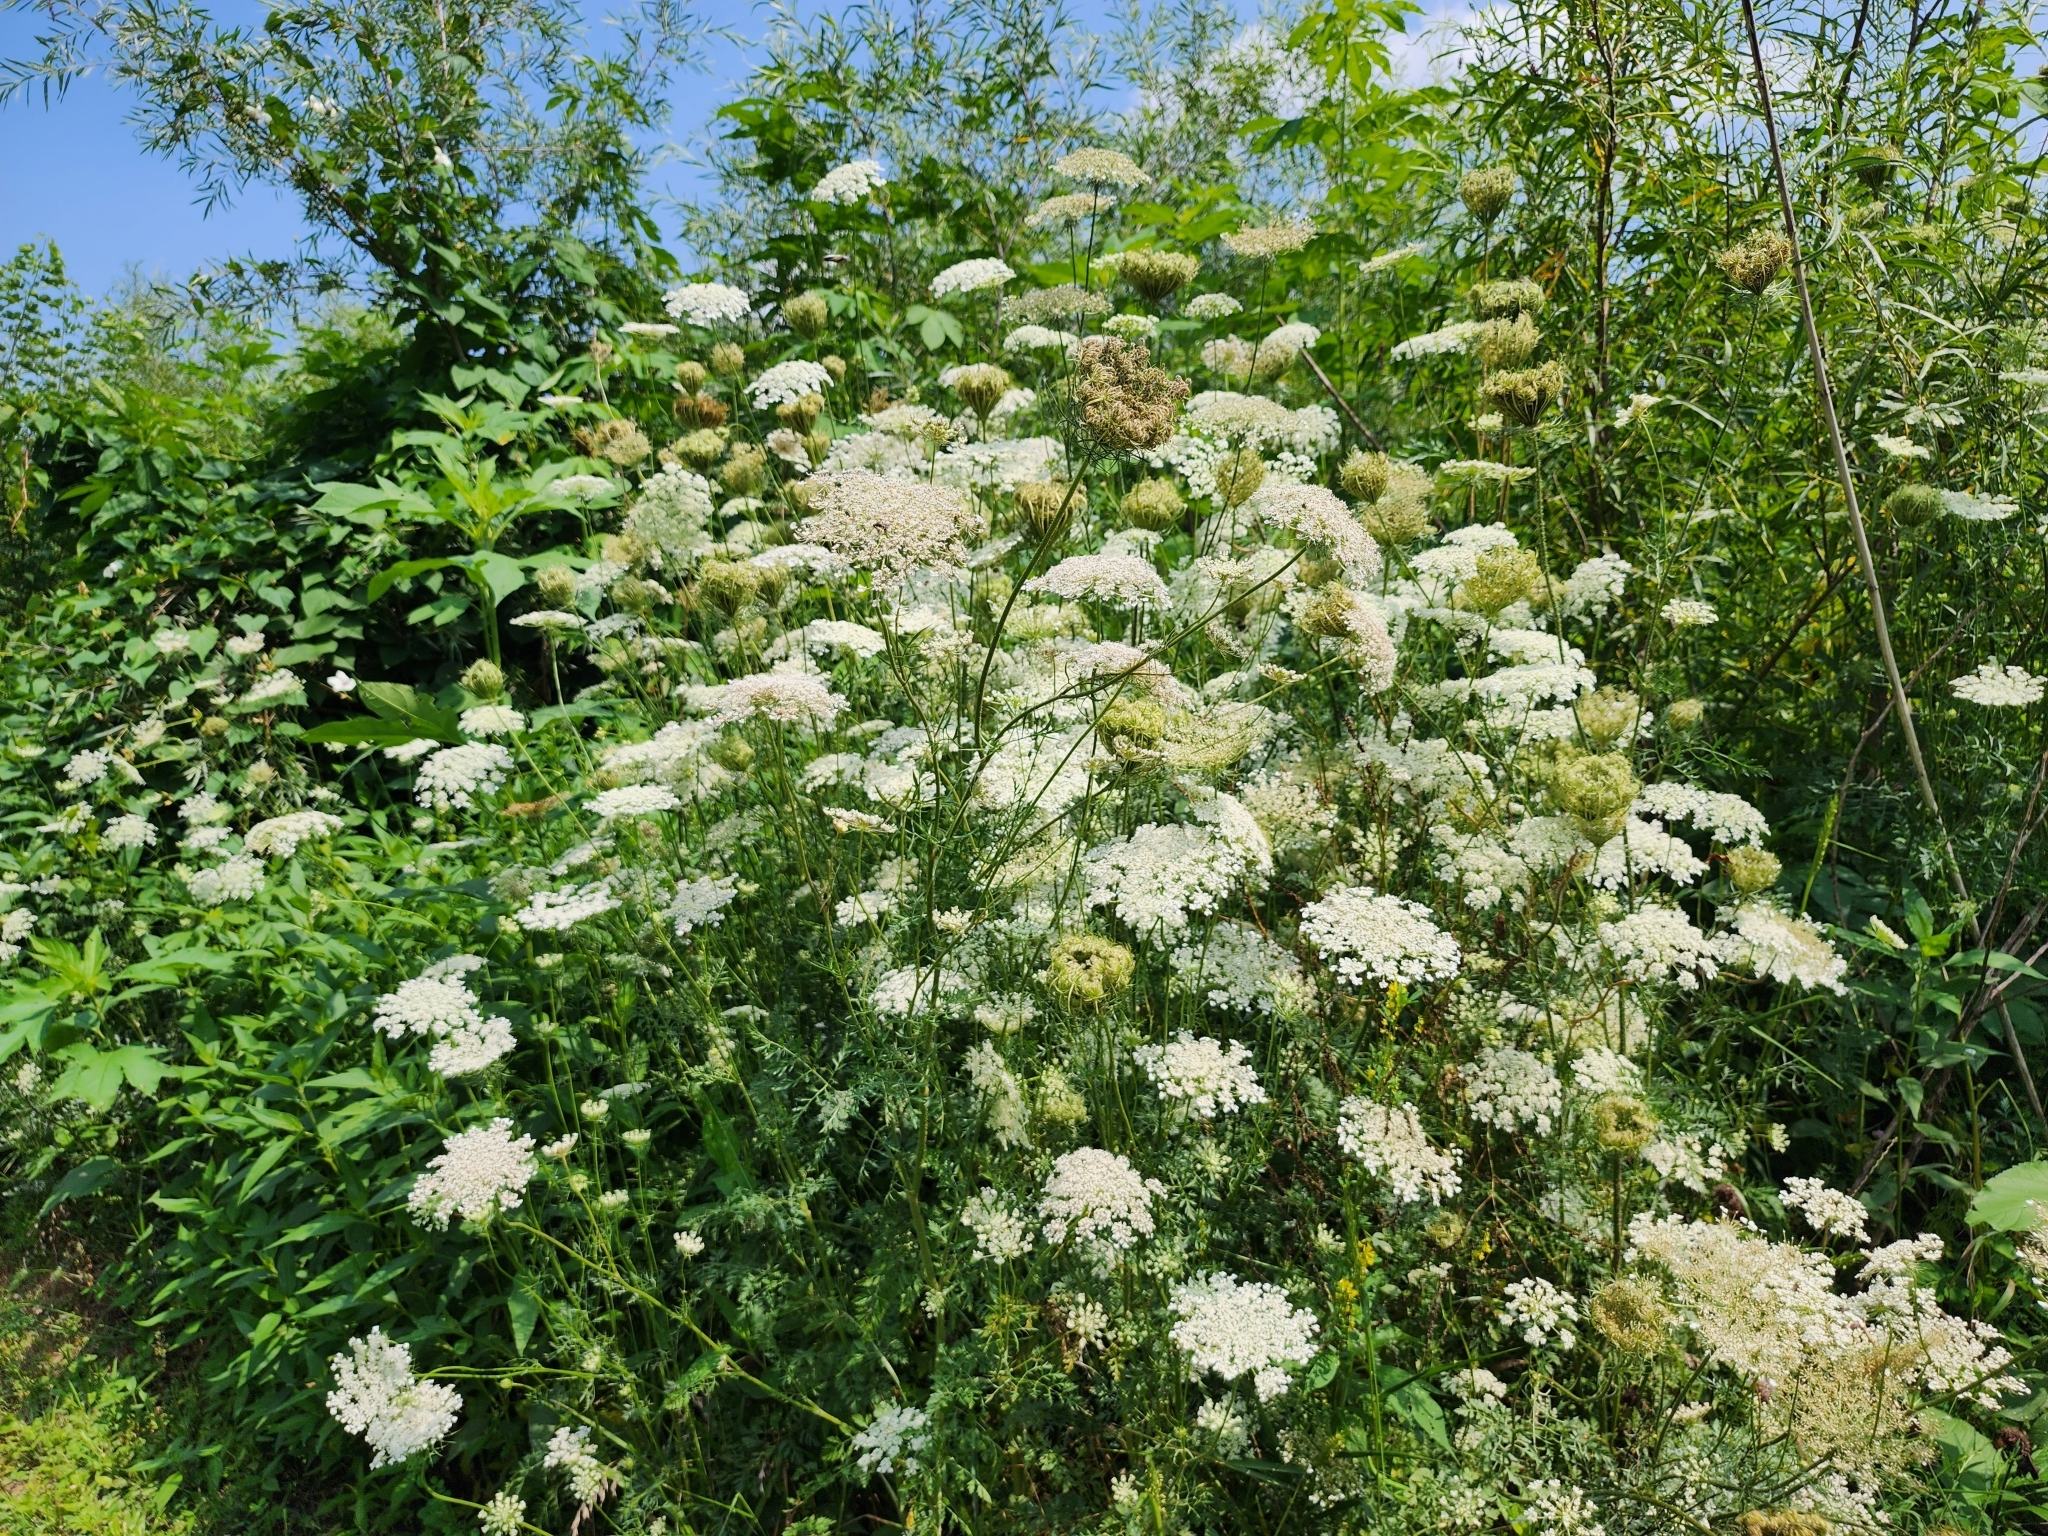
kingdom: Plantae
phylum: Tracheophyta
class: Magnoliopsida
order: Apiales
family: Apiaceae
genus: Daucus
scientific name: Daucus carota
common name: Wild carrot
